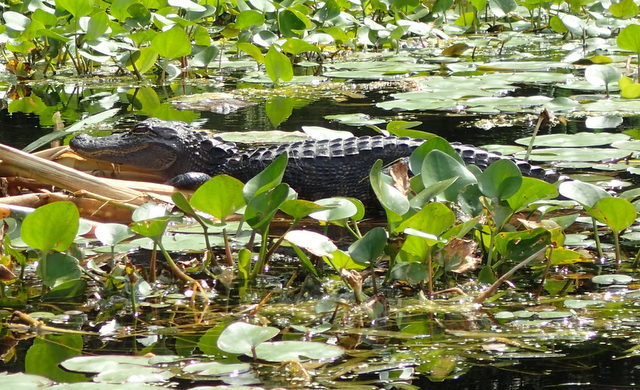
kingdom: Animalia
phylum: Chordata
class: Crocodylia
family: Alligatoridae
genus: Alligator
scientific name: Alligator mississippiensis
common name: American alligator
